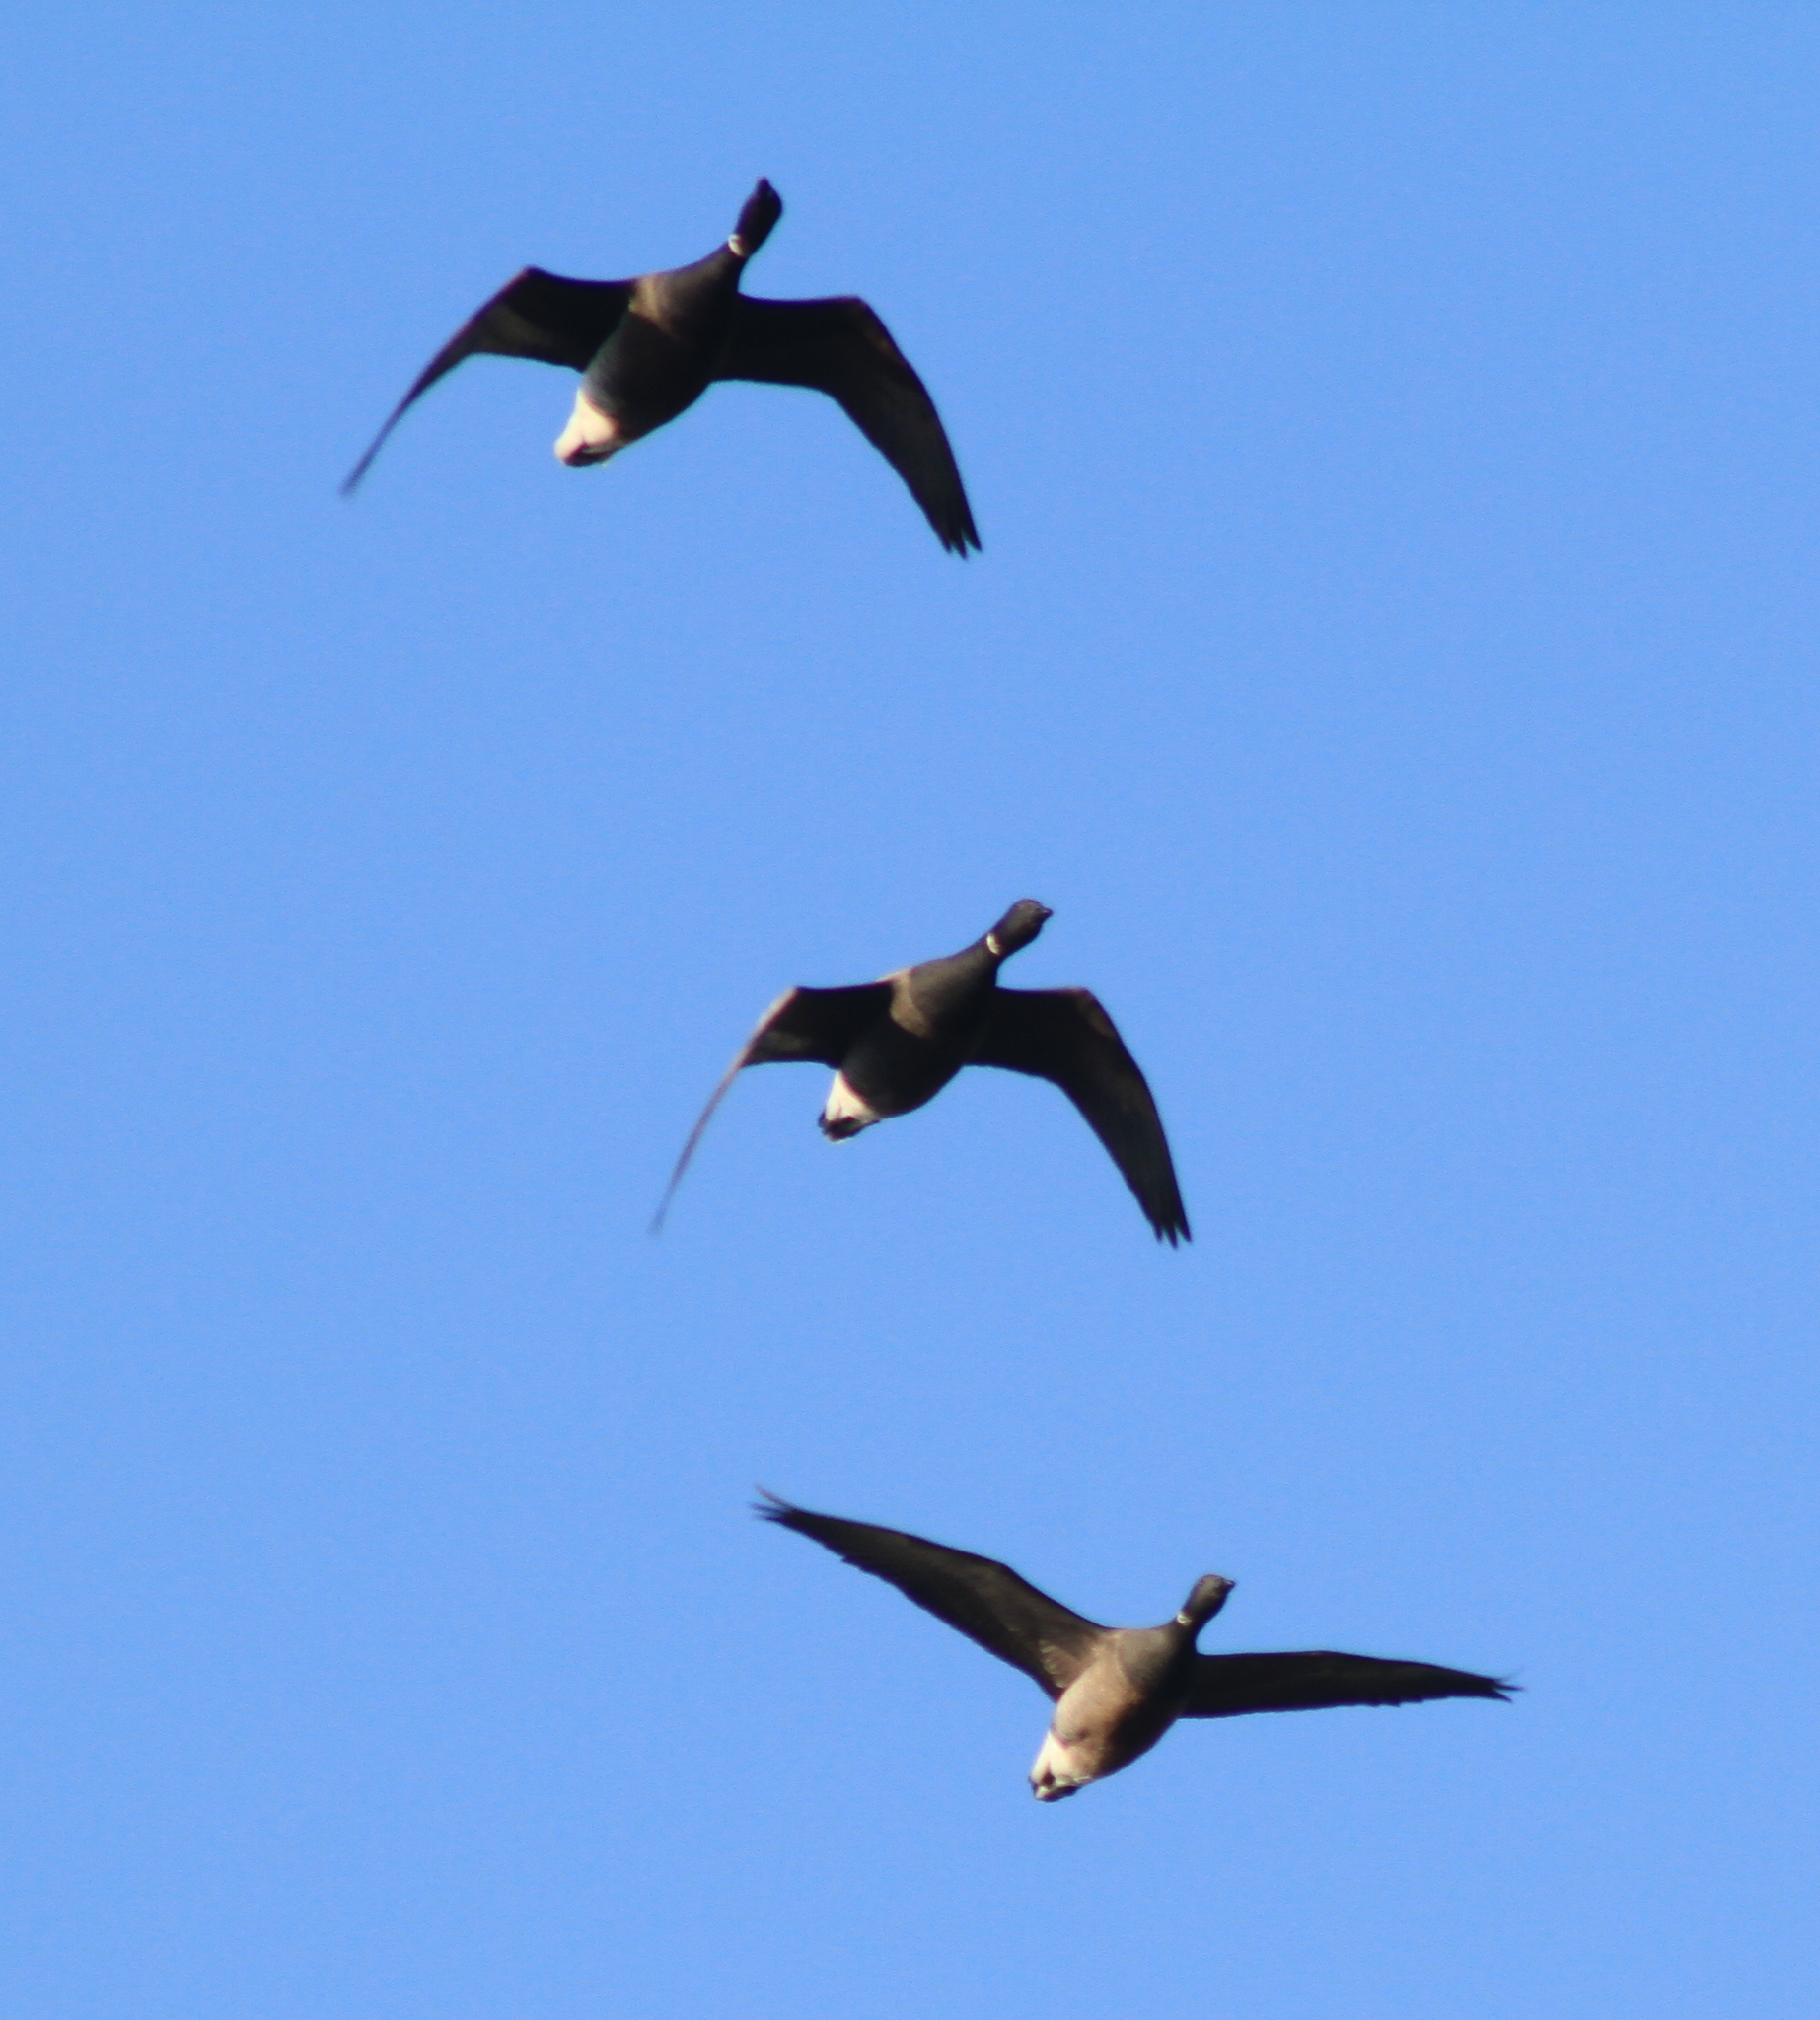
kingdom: Animalia
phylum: Chordata
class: Aves
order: Anseriformes
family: Anatidae
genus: Branta
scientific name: Branta bernicla
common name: Brant goose
